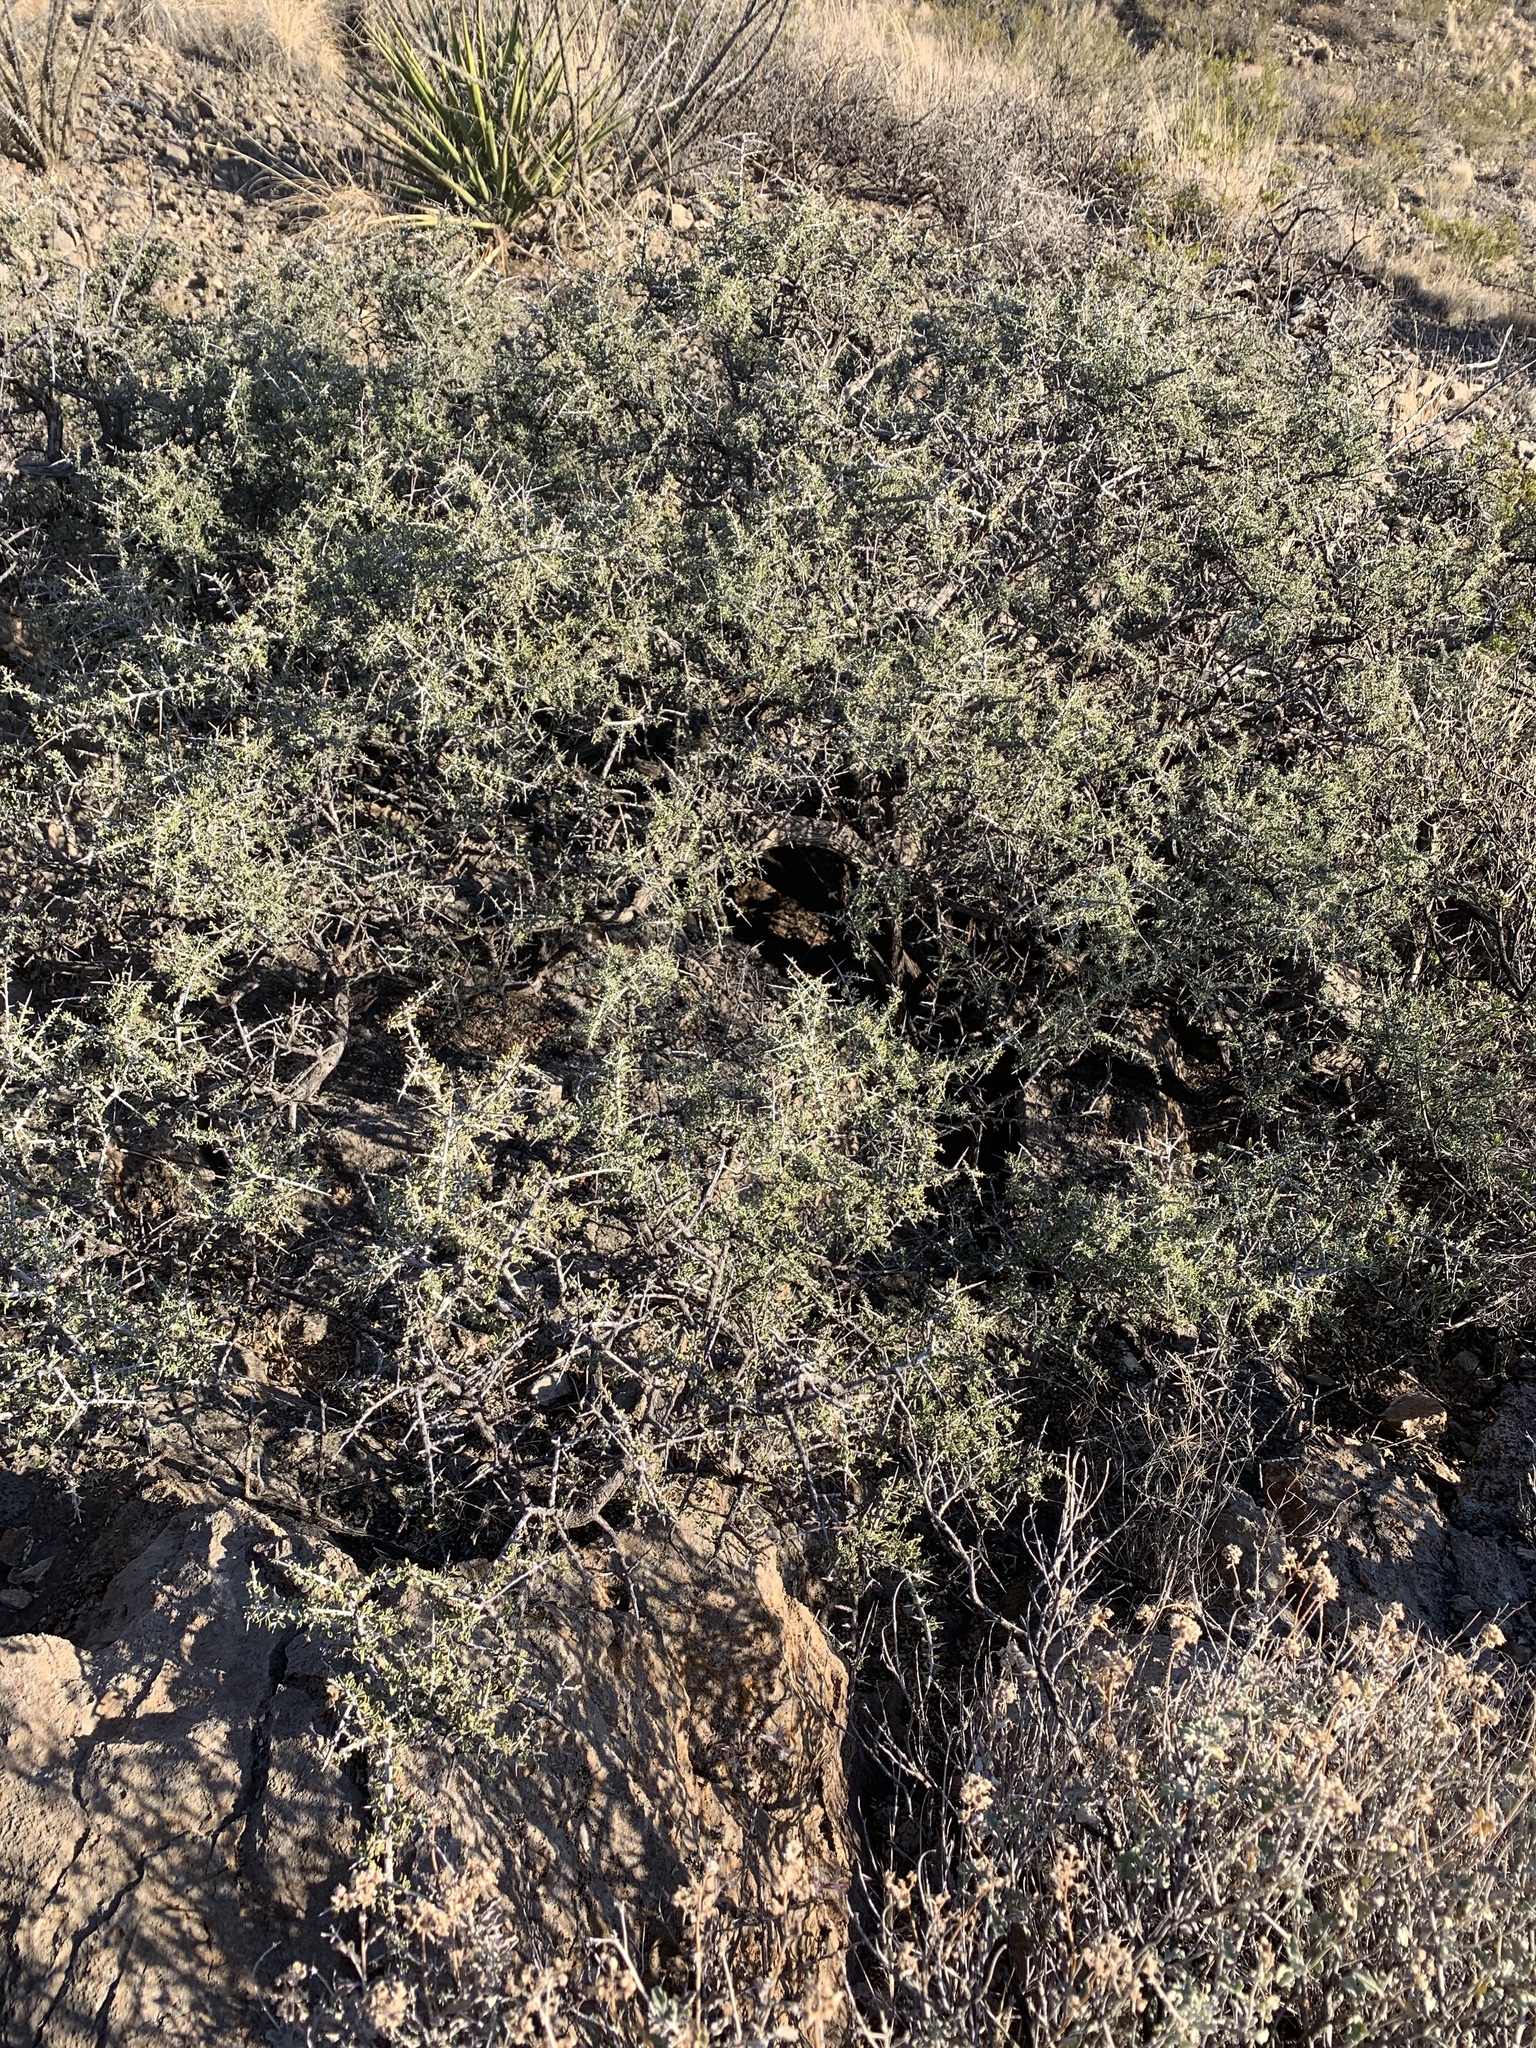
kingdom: Plantae
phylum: Tracheophyta
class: Magnoliopsida
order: Rosales
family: Rhamnaceae
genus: Condalia
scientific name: Condalia warnockii
